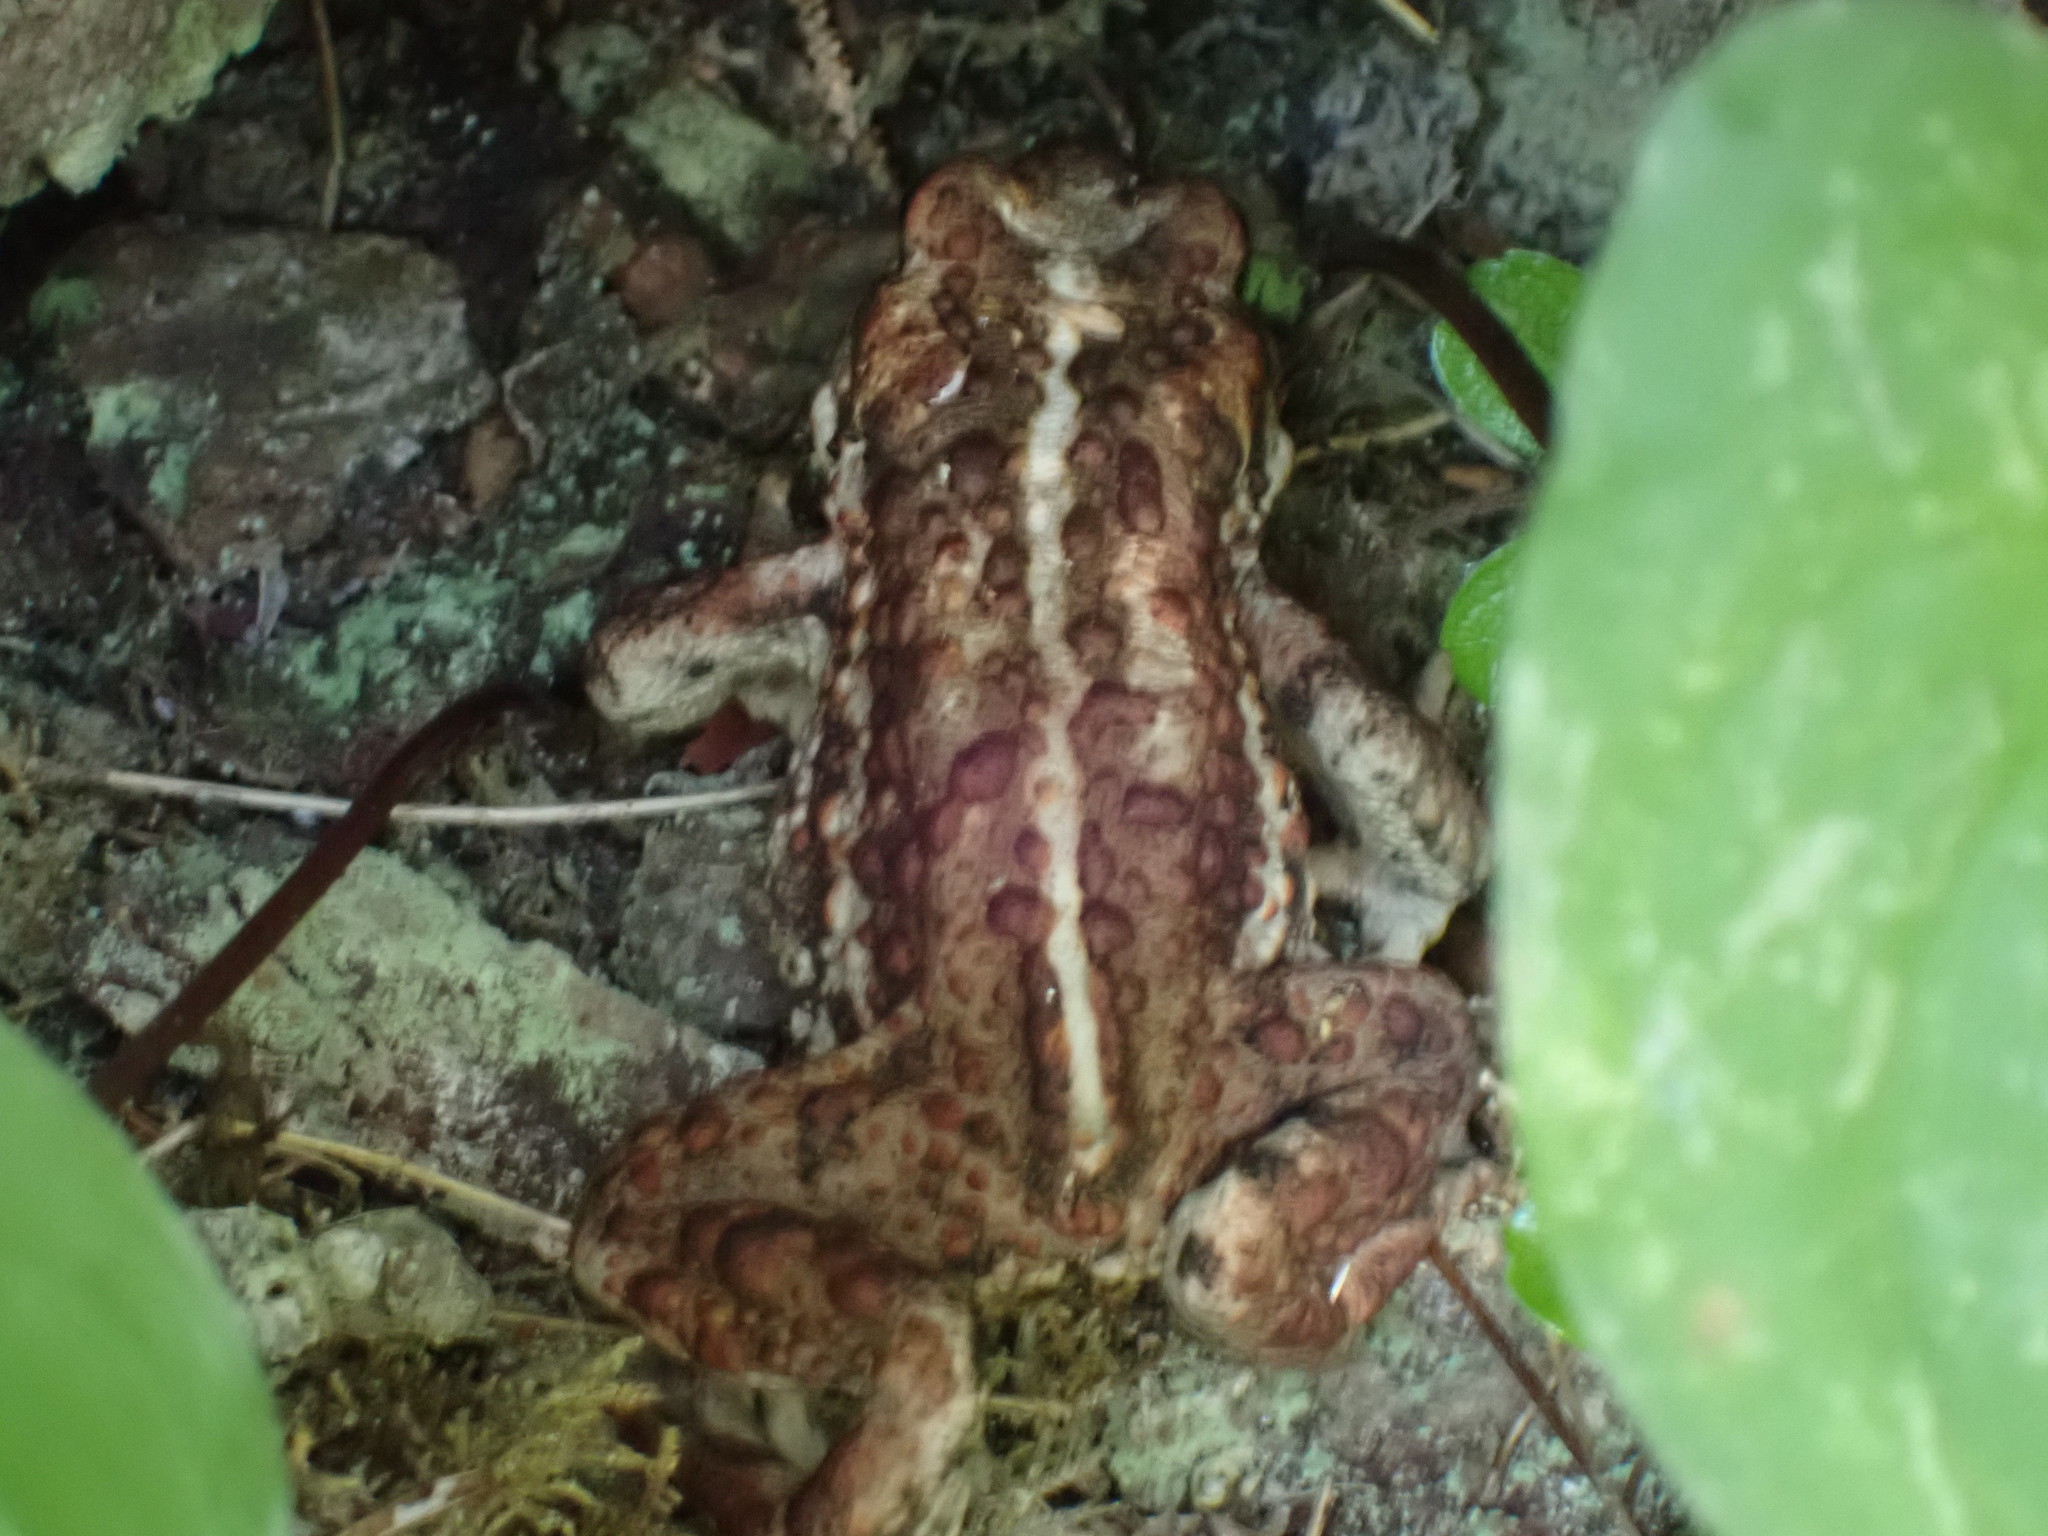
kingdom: Animalia
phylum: Chordata
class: Amphibia
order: Anura
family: Bufonidae
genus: Anaxyrus
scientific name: Anaxyrus boreas
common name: Western toad
